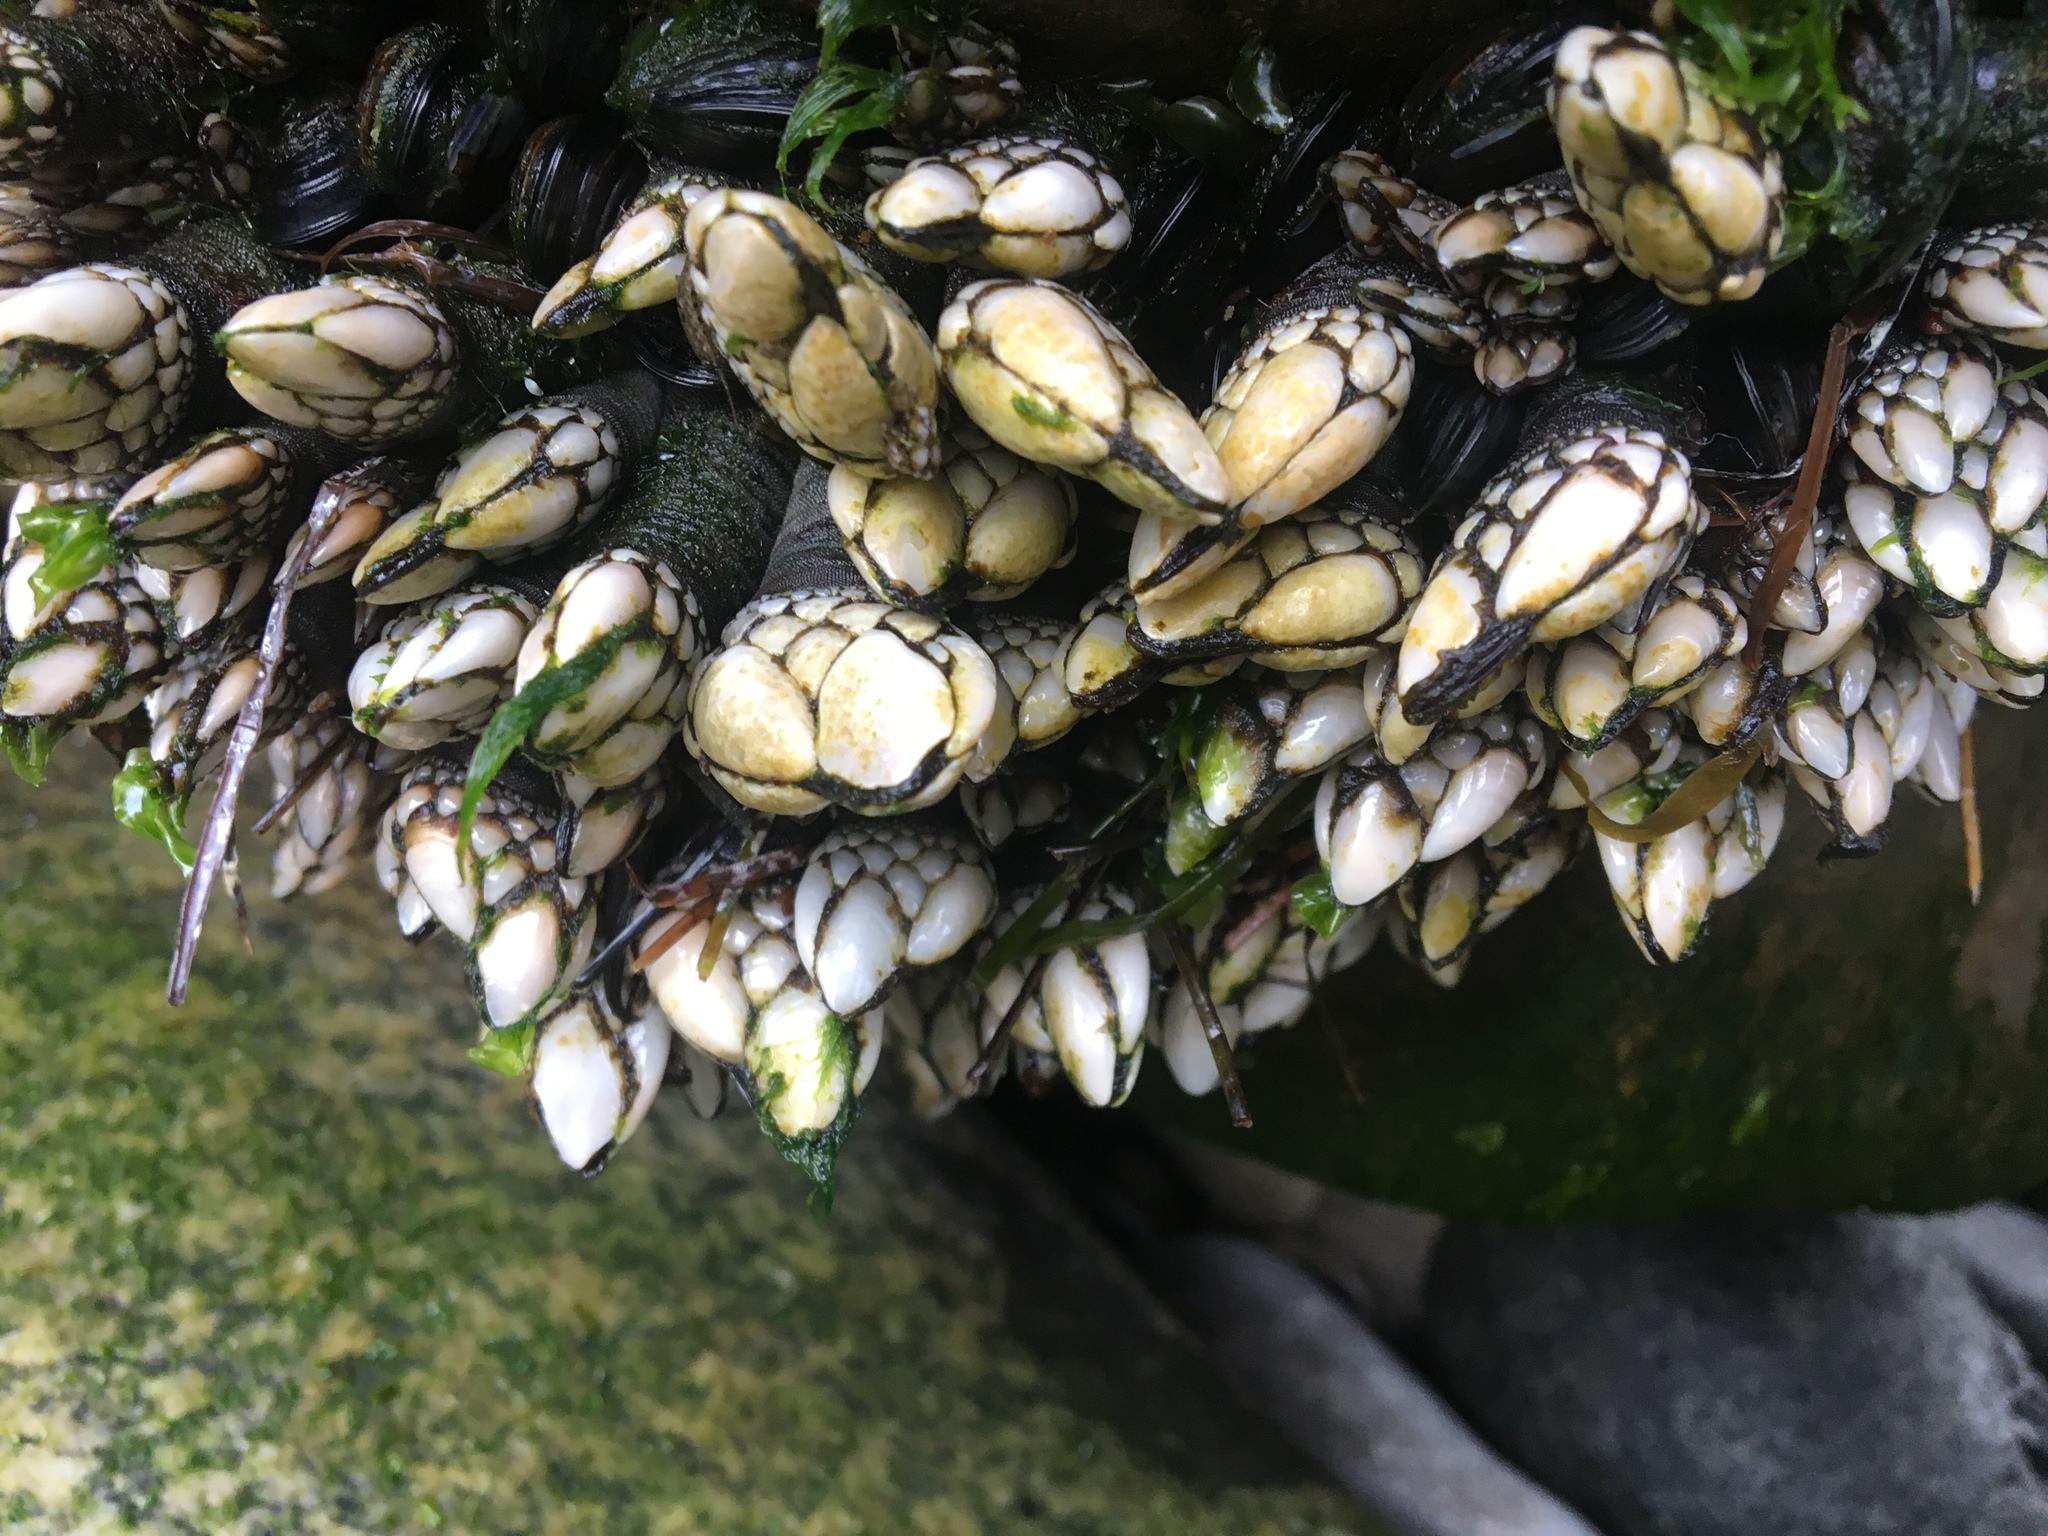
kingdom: Animalia
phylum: Arthropoda
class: Maxillopoda
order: Pedunculata
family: Pollicipedidae
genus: Pollicipes
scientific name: Pollicipes polymerus
